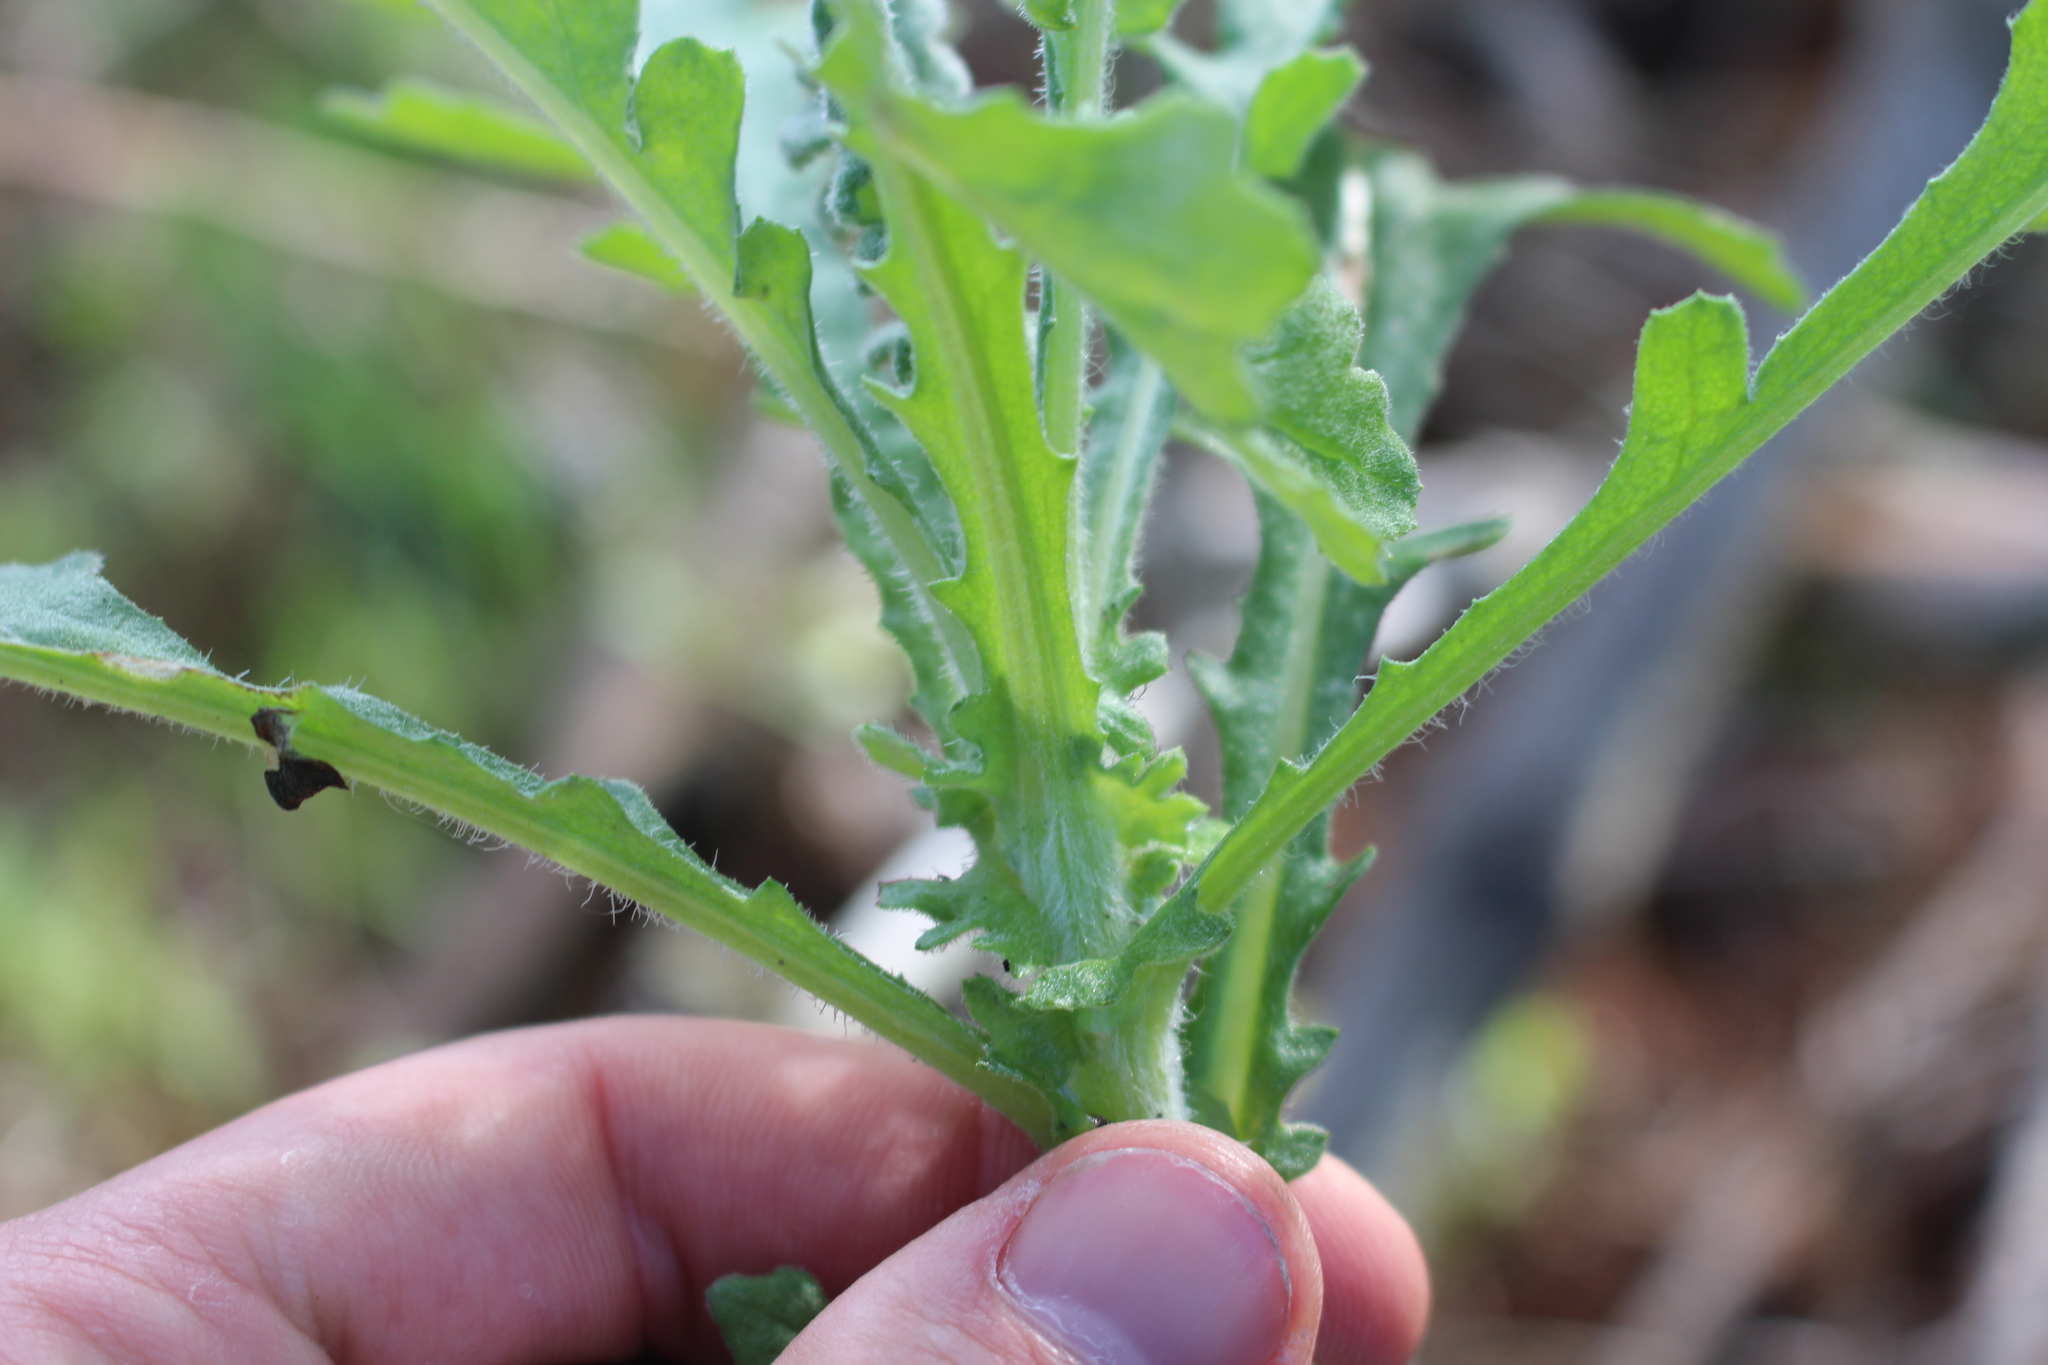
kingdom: Plantae
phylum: Tracheophyta
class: Magnoliopsida
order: Asterales
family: Asteraceae
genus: Senecio
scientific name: Senecio glomeratus
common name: Cutleaf burnweed
